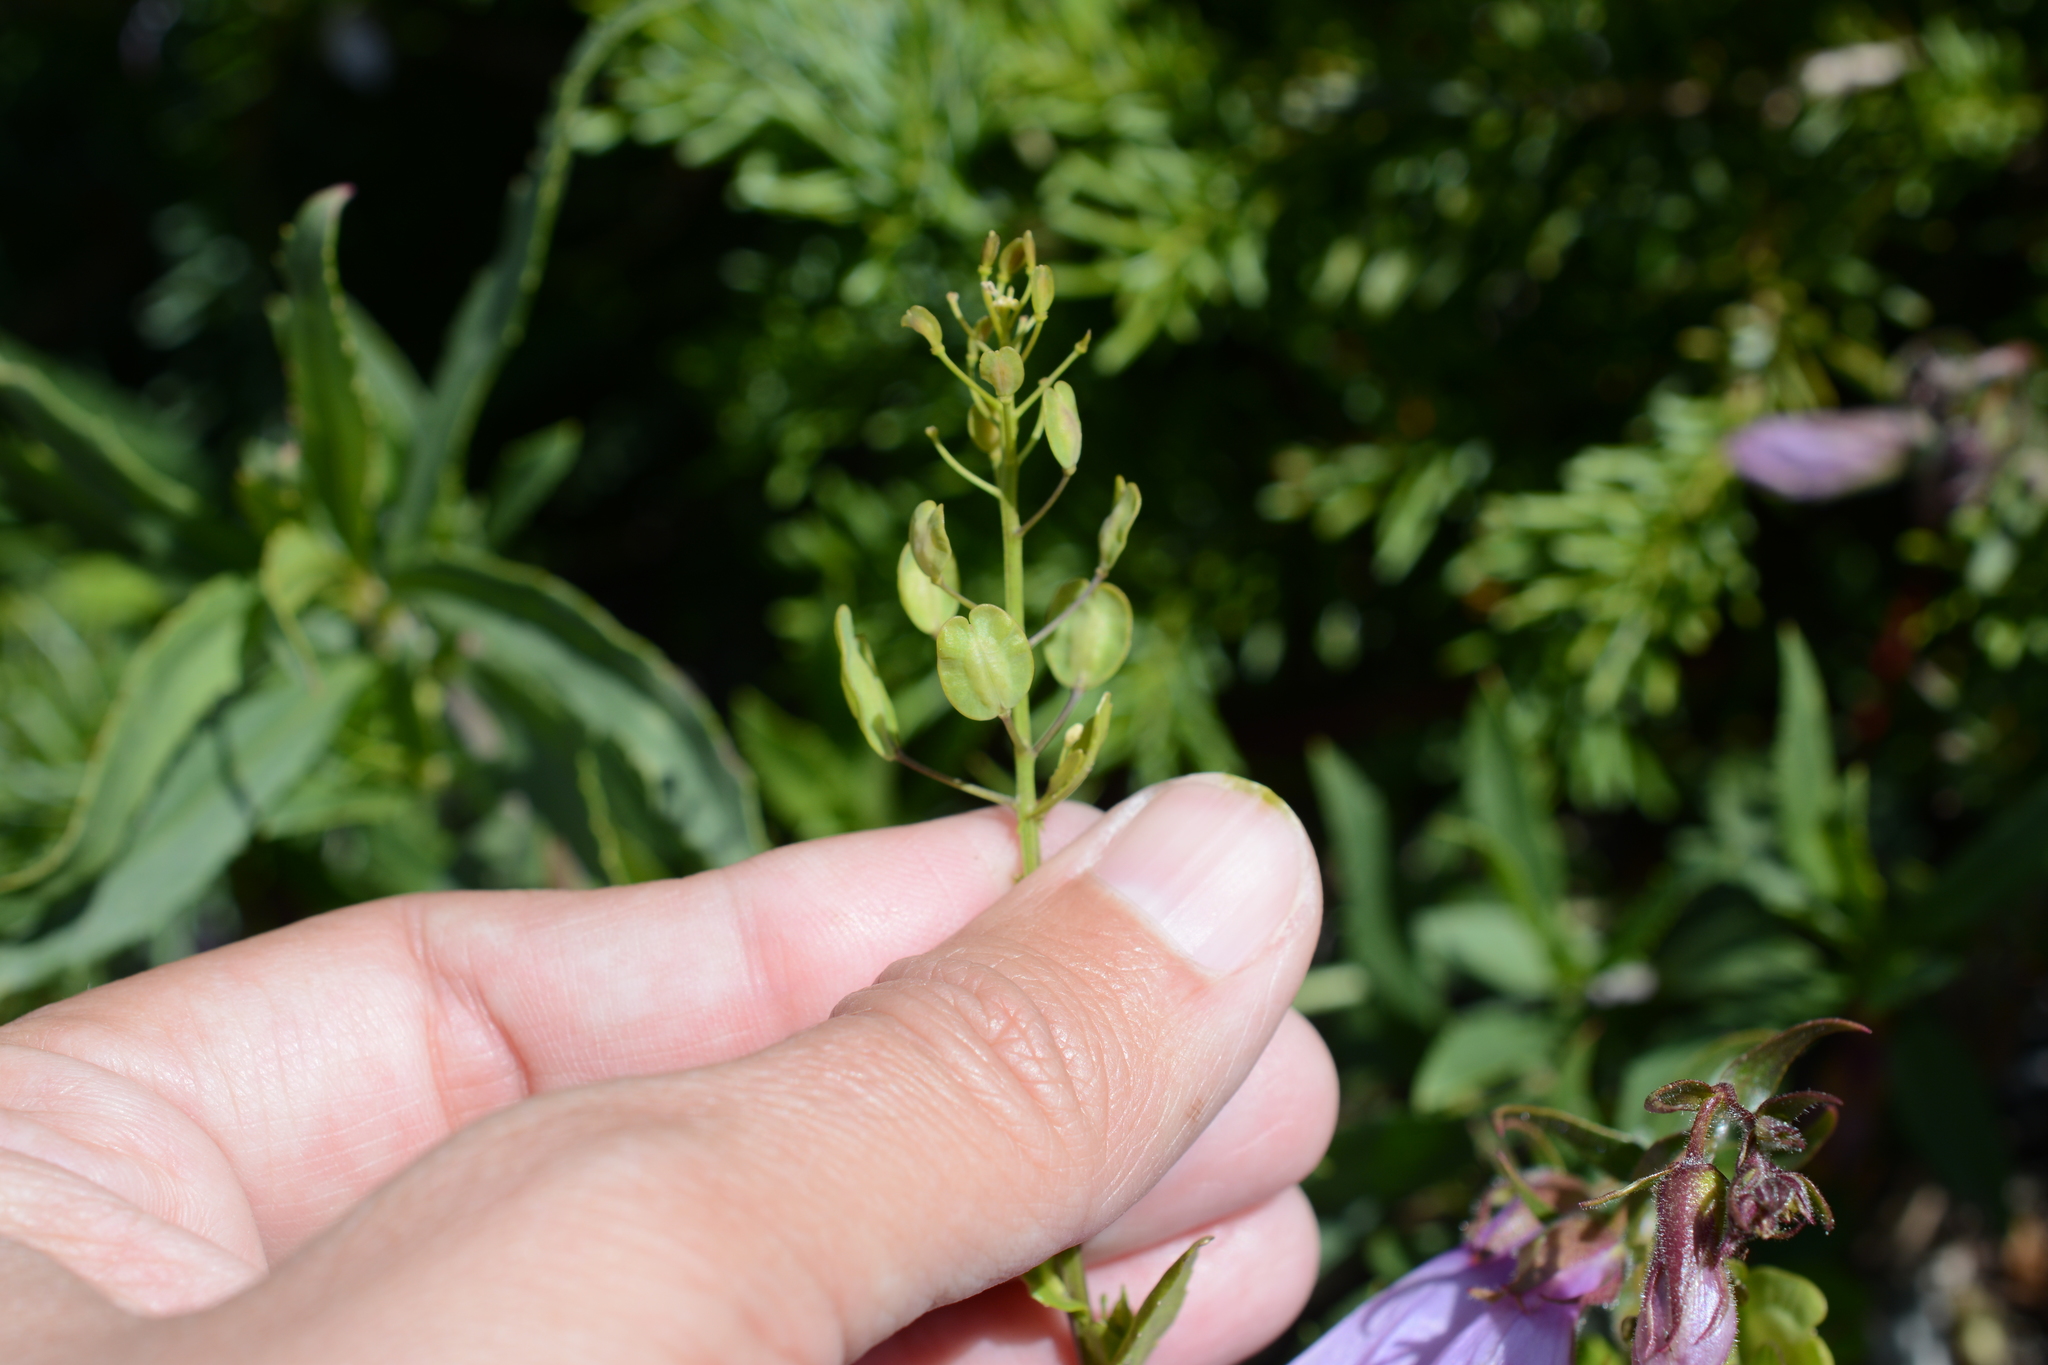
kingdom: Plantae
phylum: Tracheophyta
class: Magnoliopsida
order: Brassicales
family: Brassicaceae
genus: Thlaspi
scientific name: Thlaspi arvense
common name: Field pennycress
